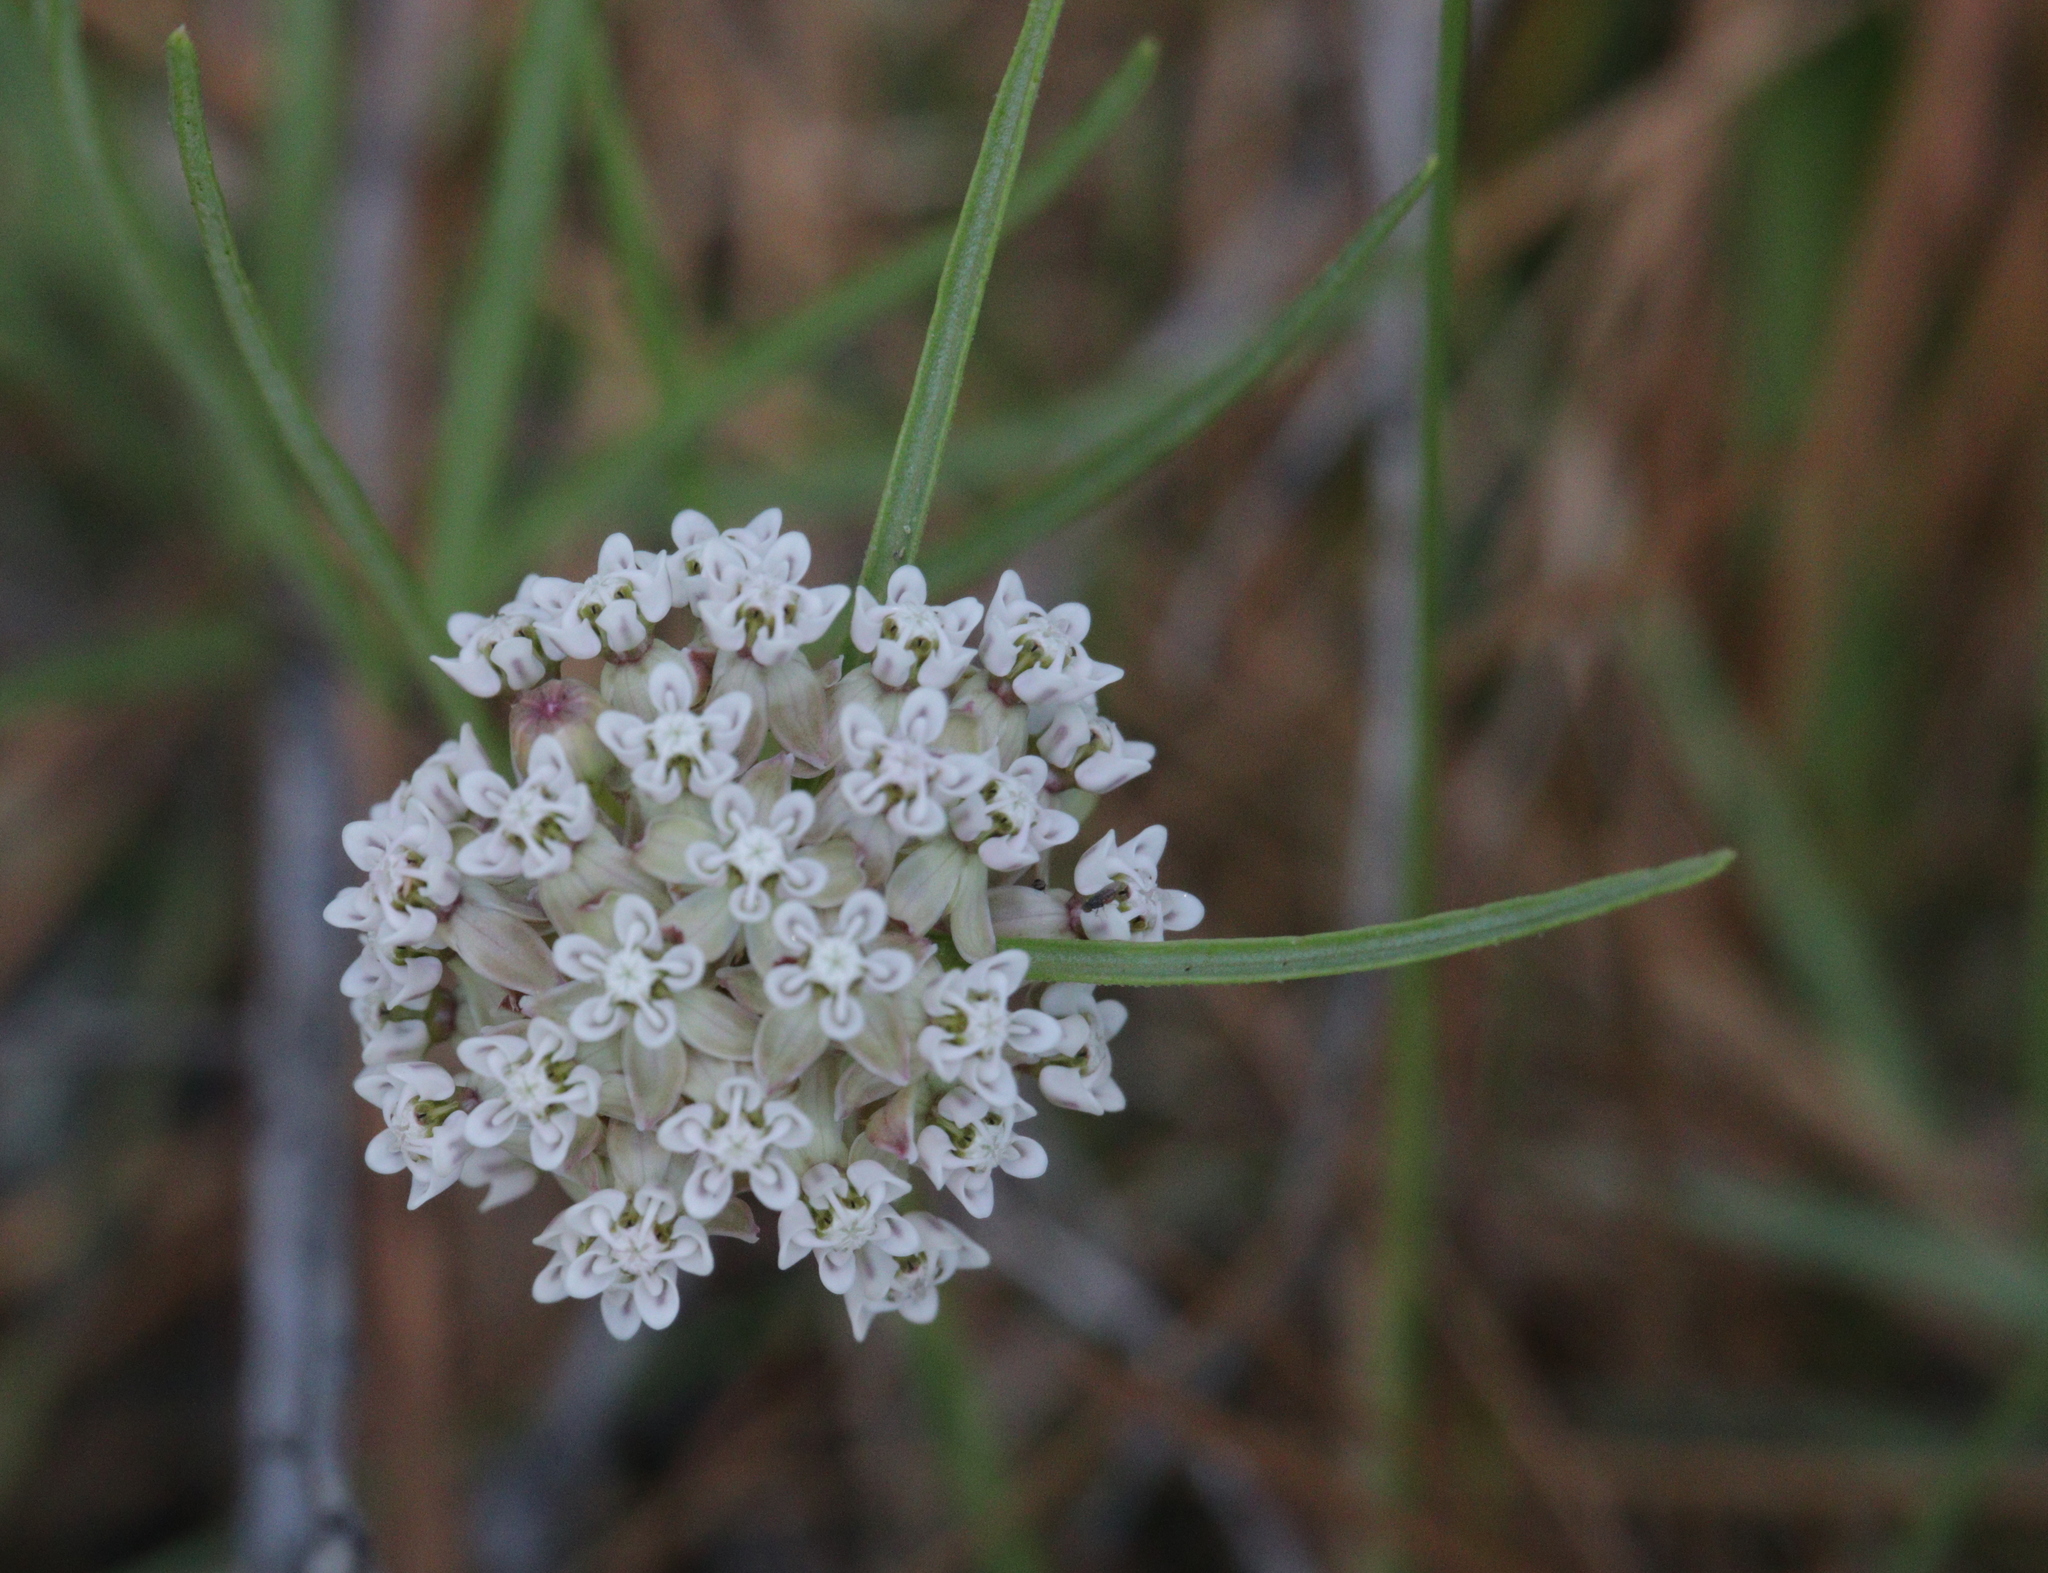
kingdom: Plantae
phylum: Tracheophyta
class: Magnoliopsida
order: Gentianales
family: Apocynaceae
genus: Asclepias
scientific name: Asclepias michauxii
